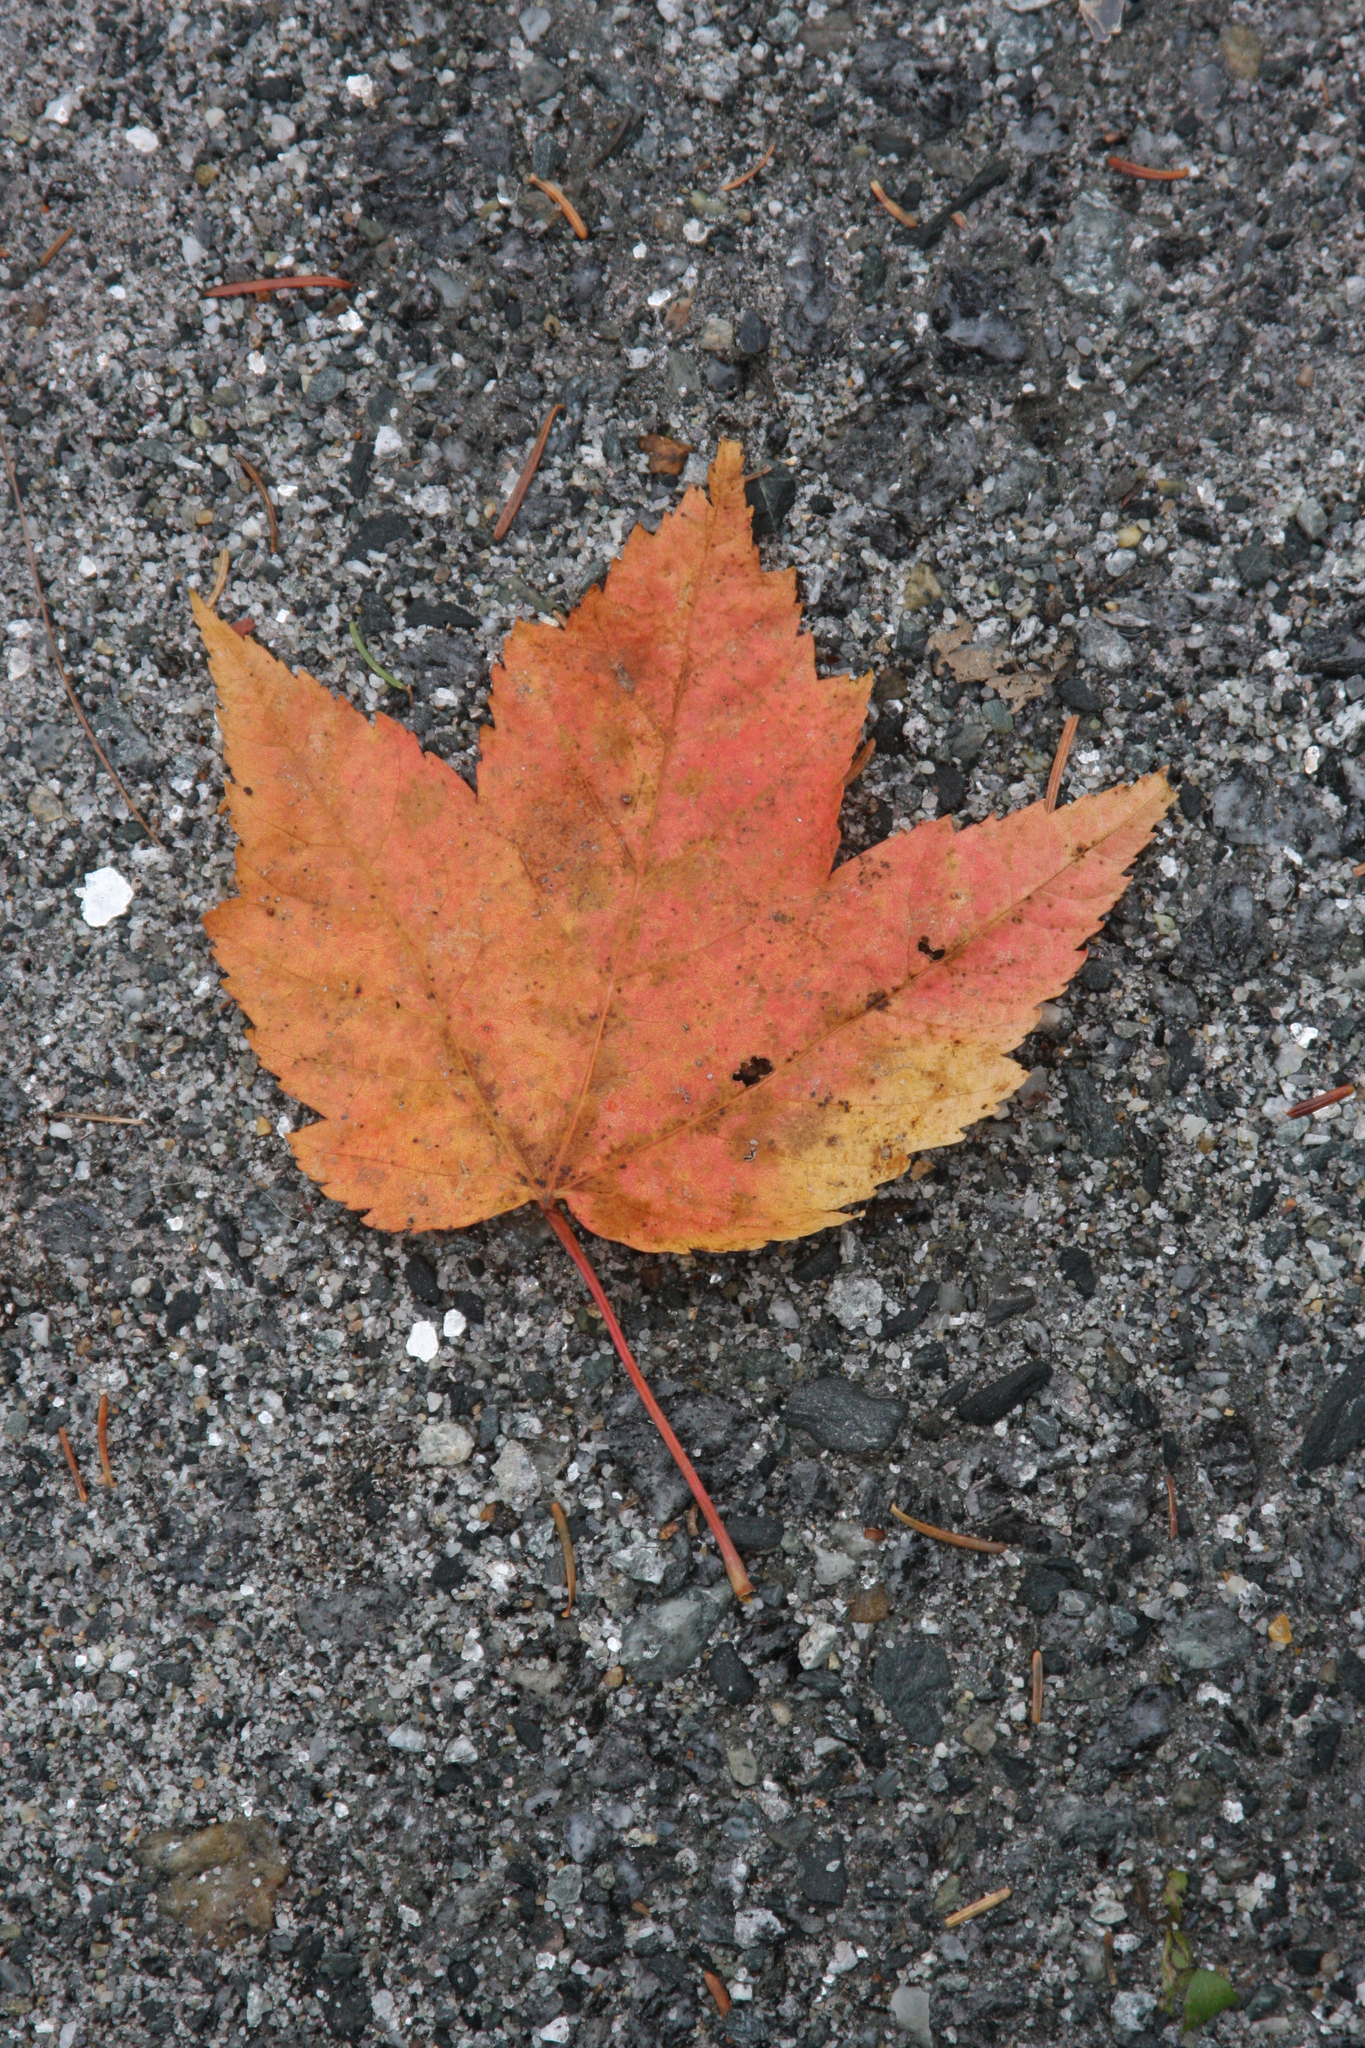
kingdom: Plantae
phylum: Tracheophyta
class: Magnoliopsida
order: Sapindales
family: Sapindaceae
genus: Acer
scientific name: Acer rubrum
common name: Red maple
